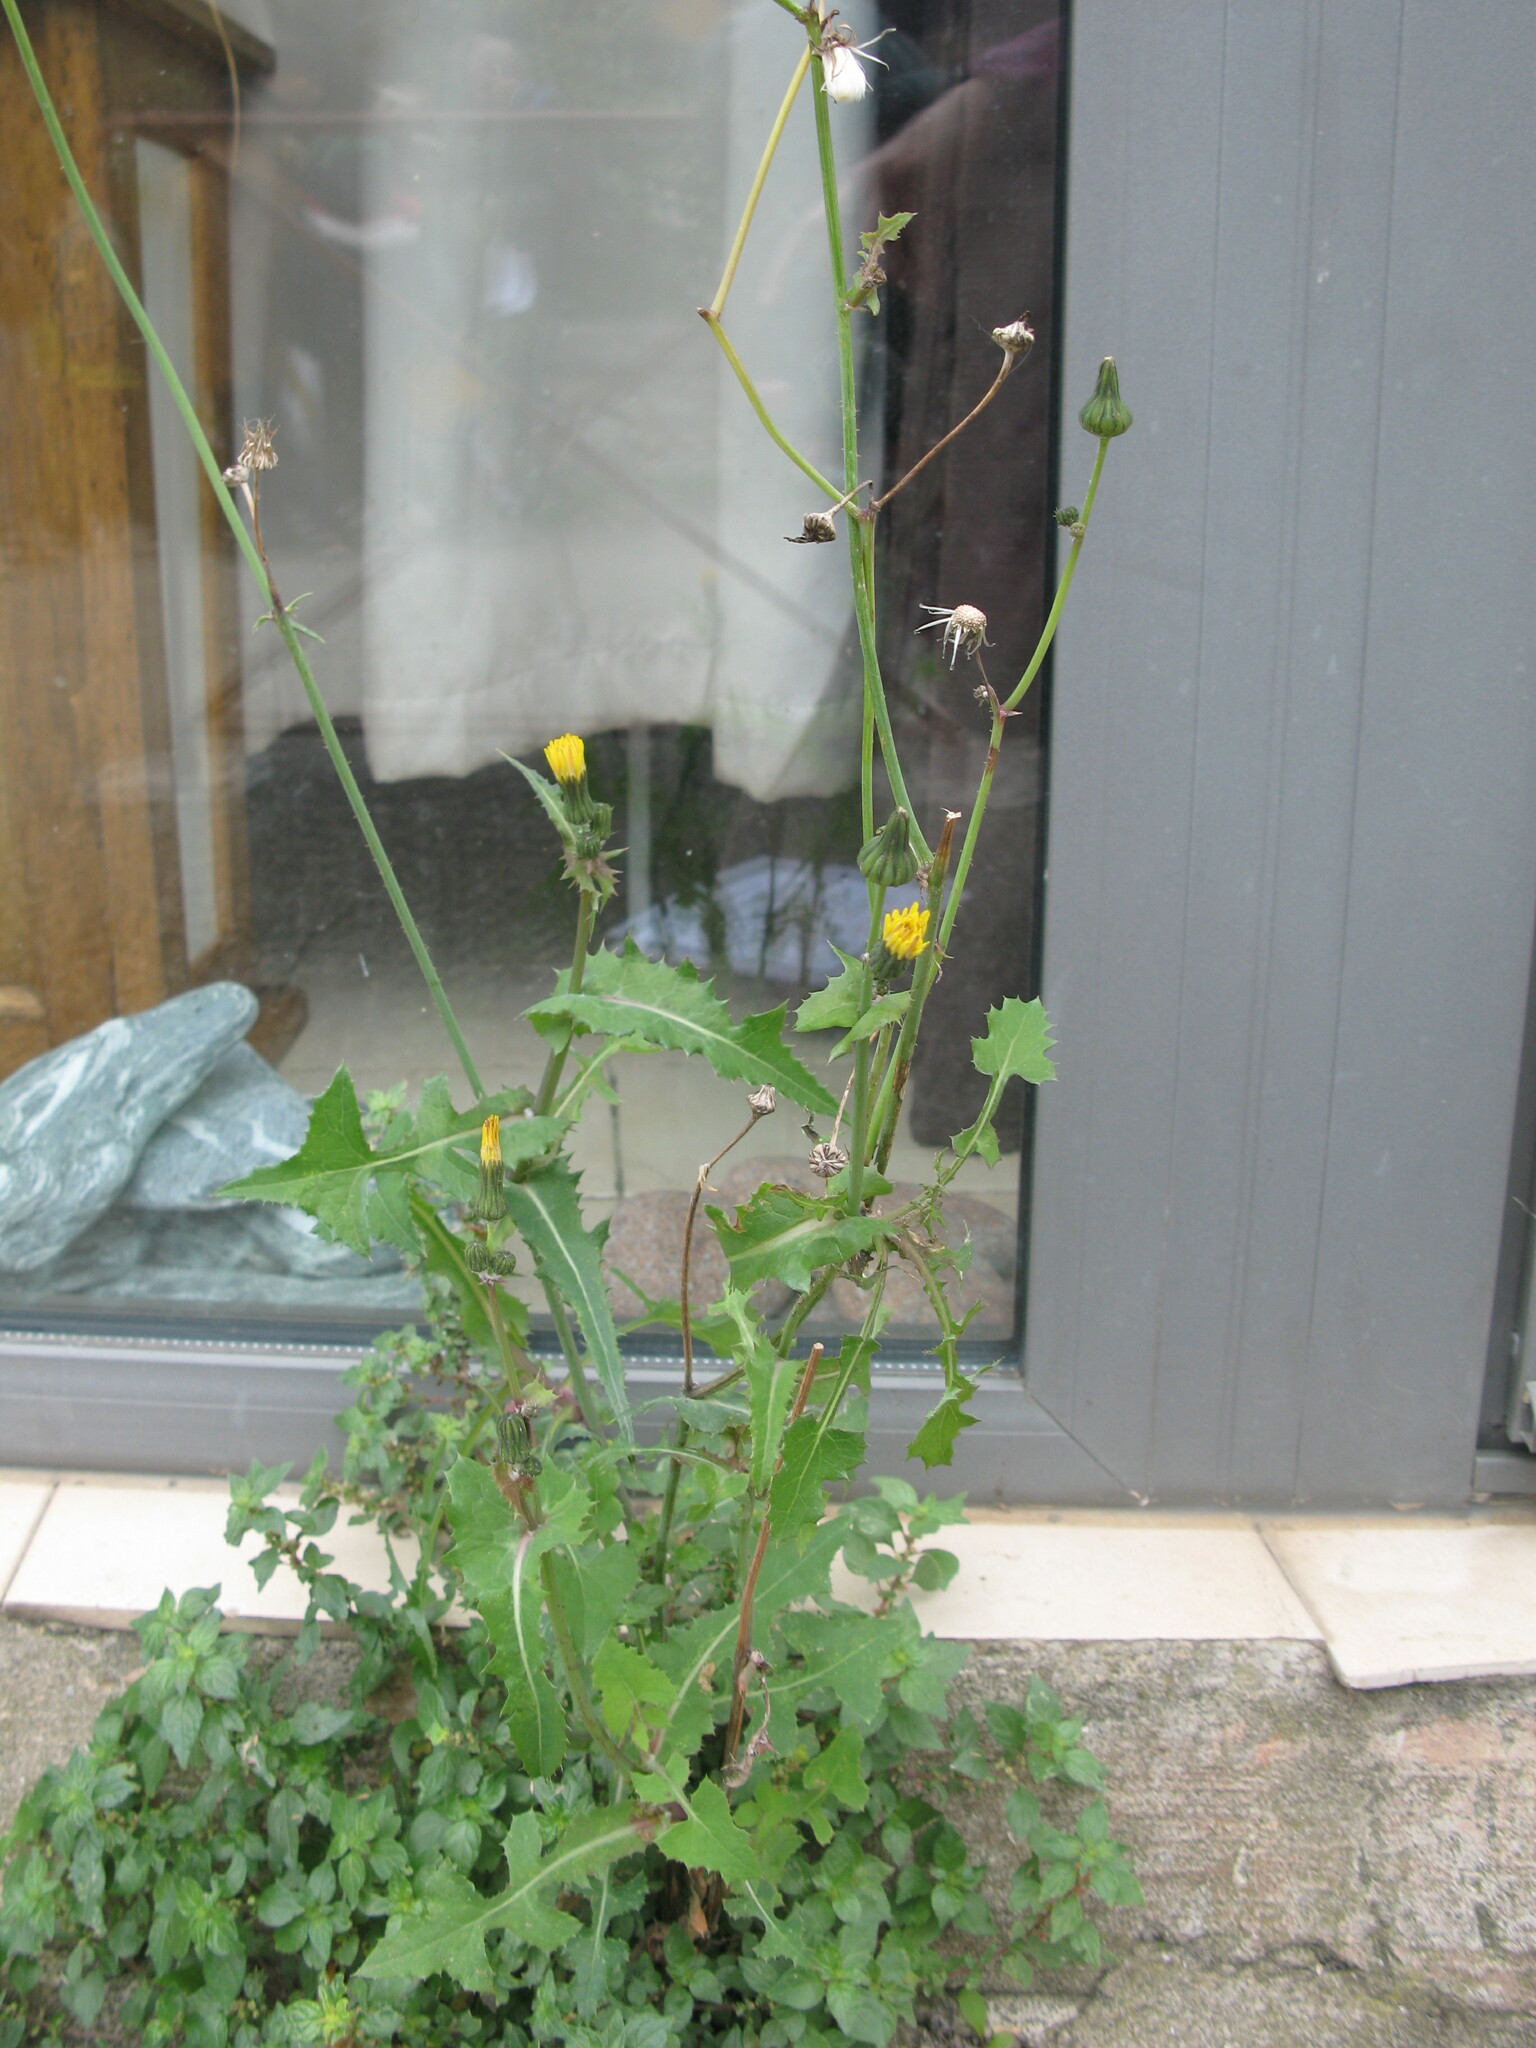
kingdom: Plantae
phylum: Tracheophyta
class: Magnoliopsida
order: Asterales
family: Asteraceae
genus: Sonchus
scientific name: Sonchus oleraceus
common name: Common sowthistle
